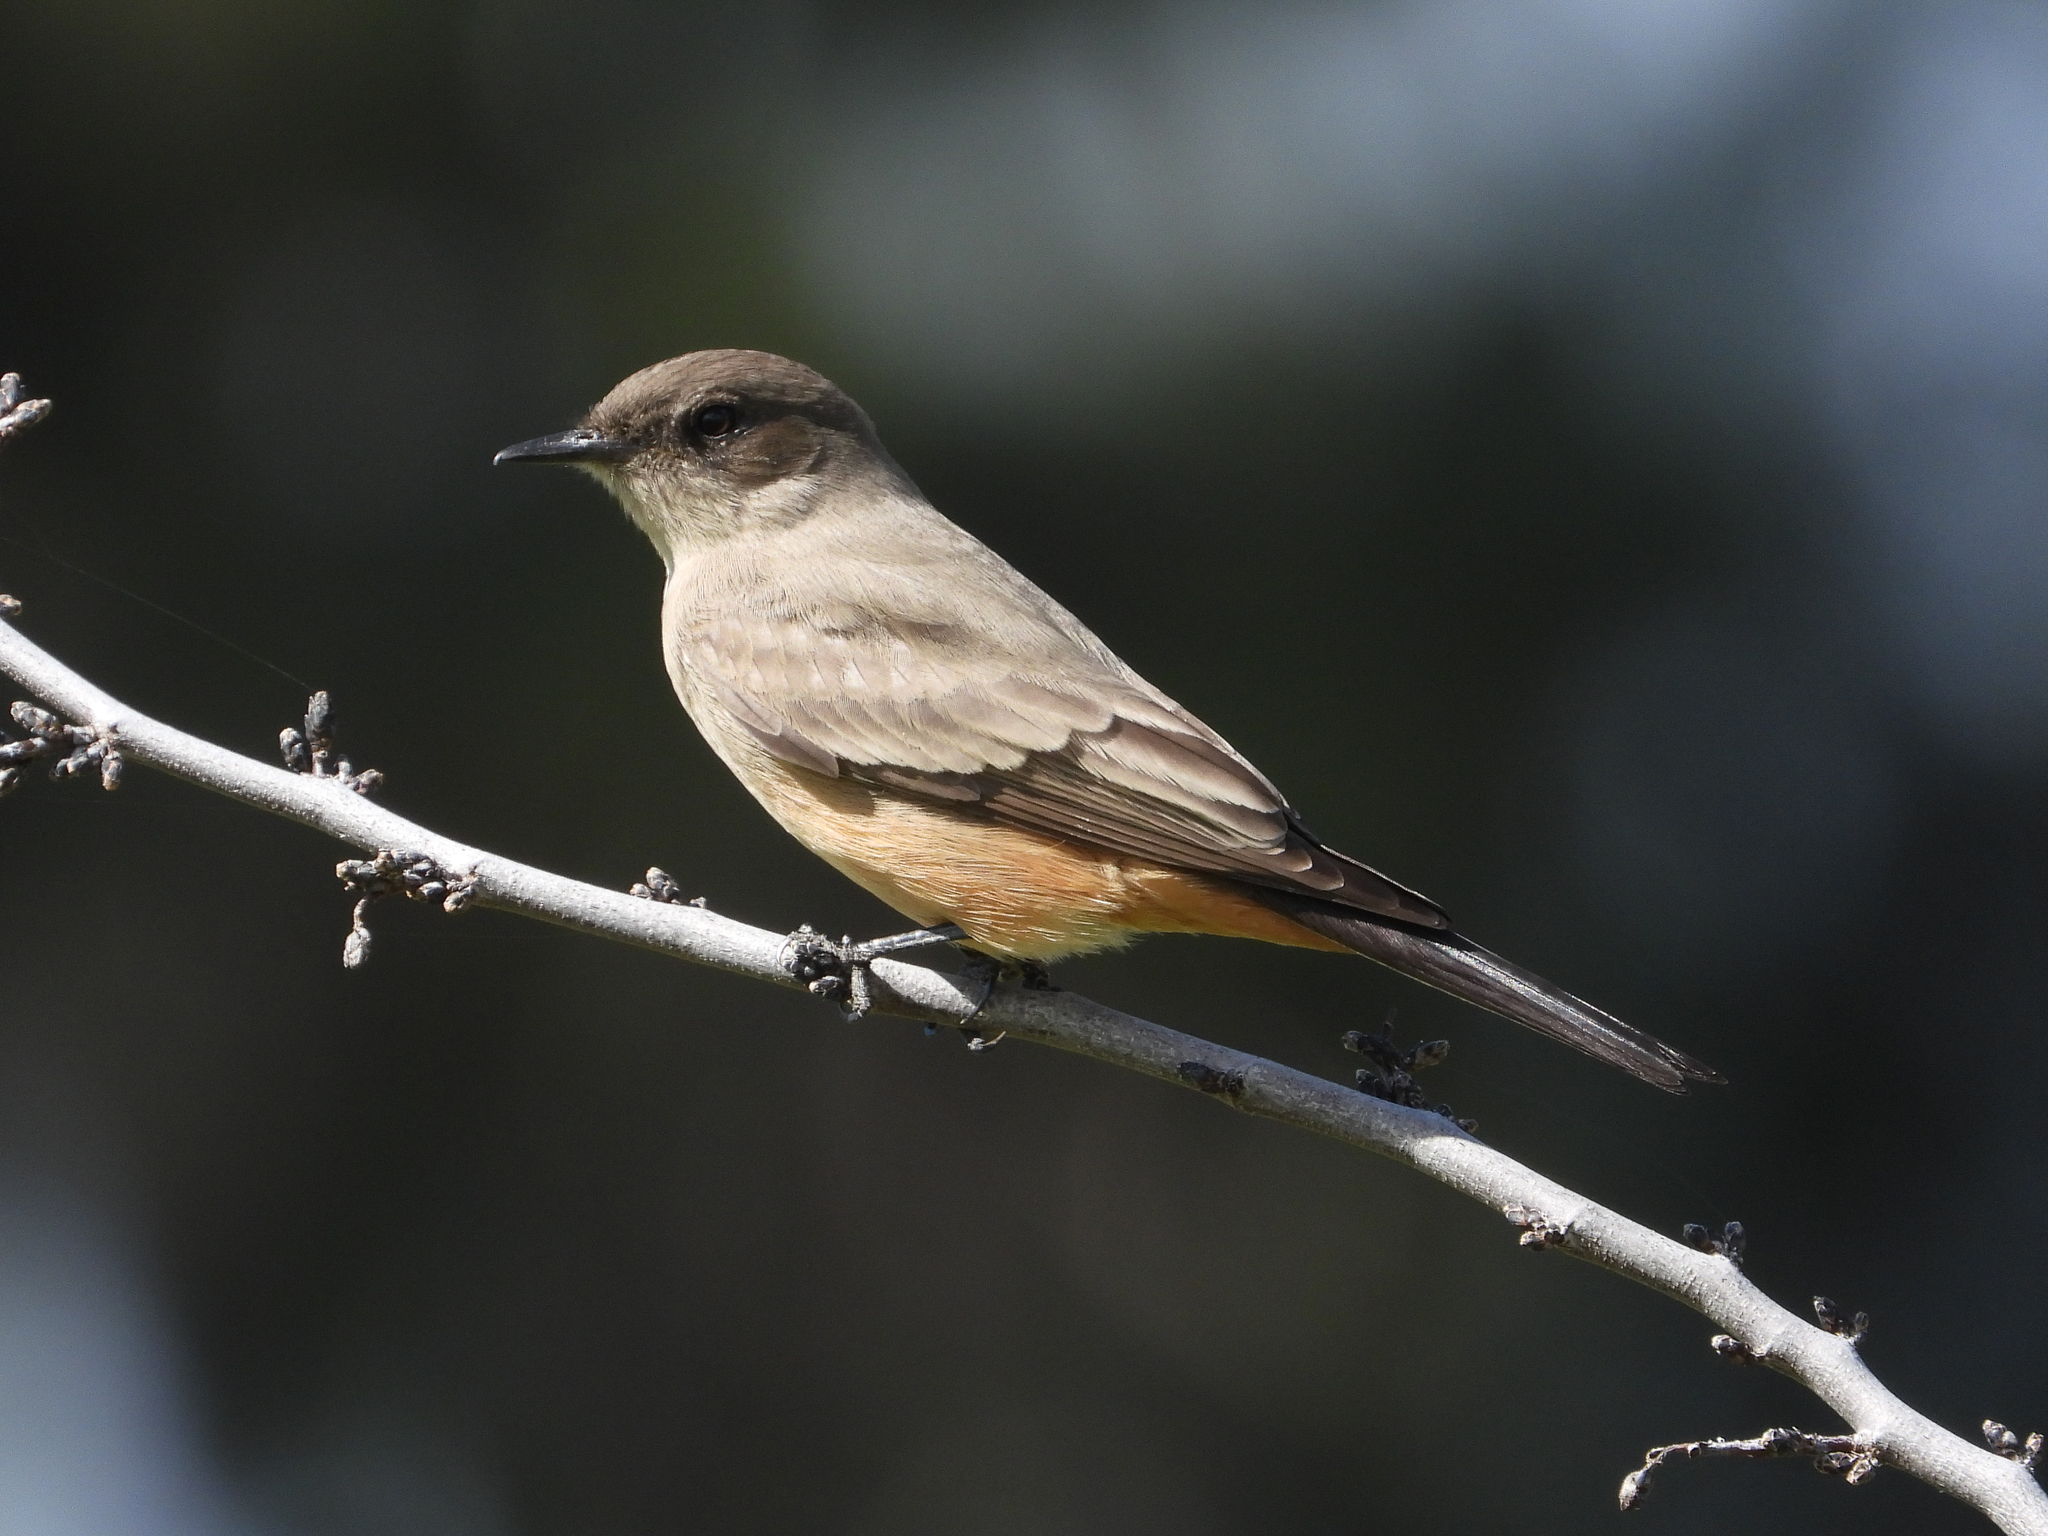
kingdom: Animalia
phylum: Chordata
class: Aves
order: Passeriformes
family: Tyrannidae
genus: Sayornis
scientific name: Sayornis saya
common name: Say's phoebe
